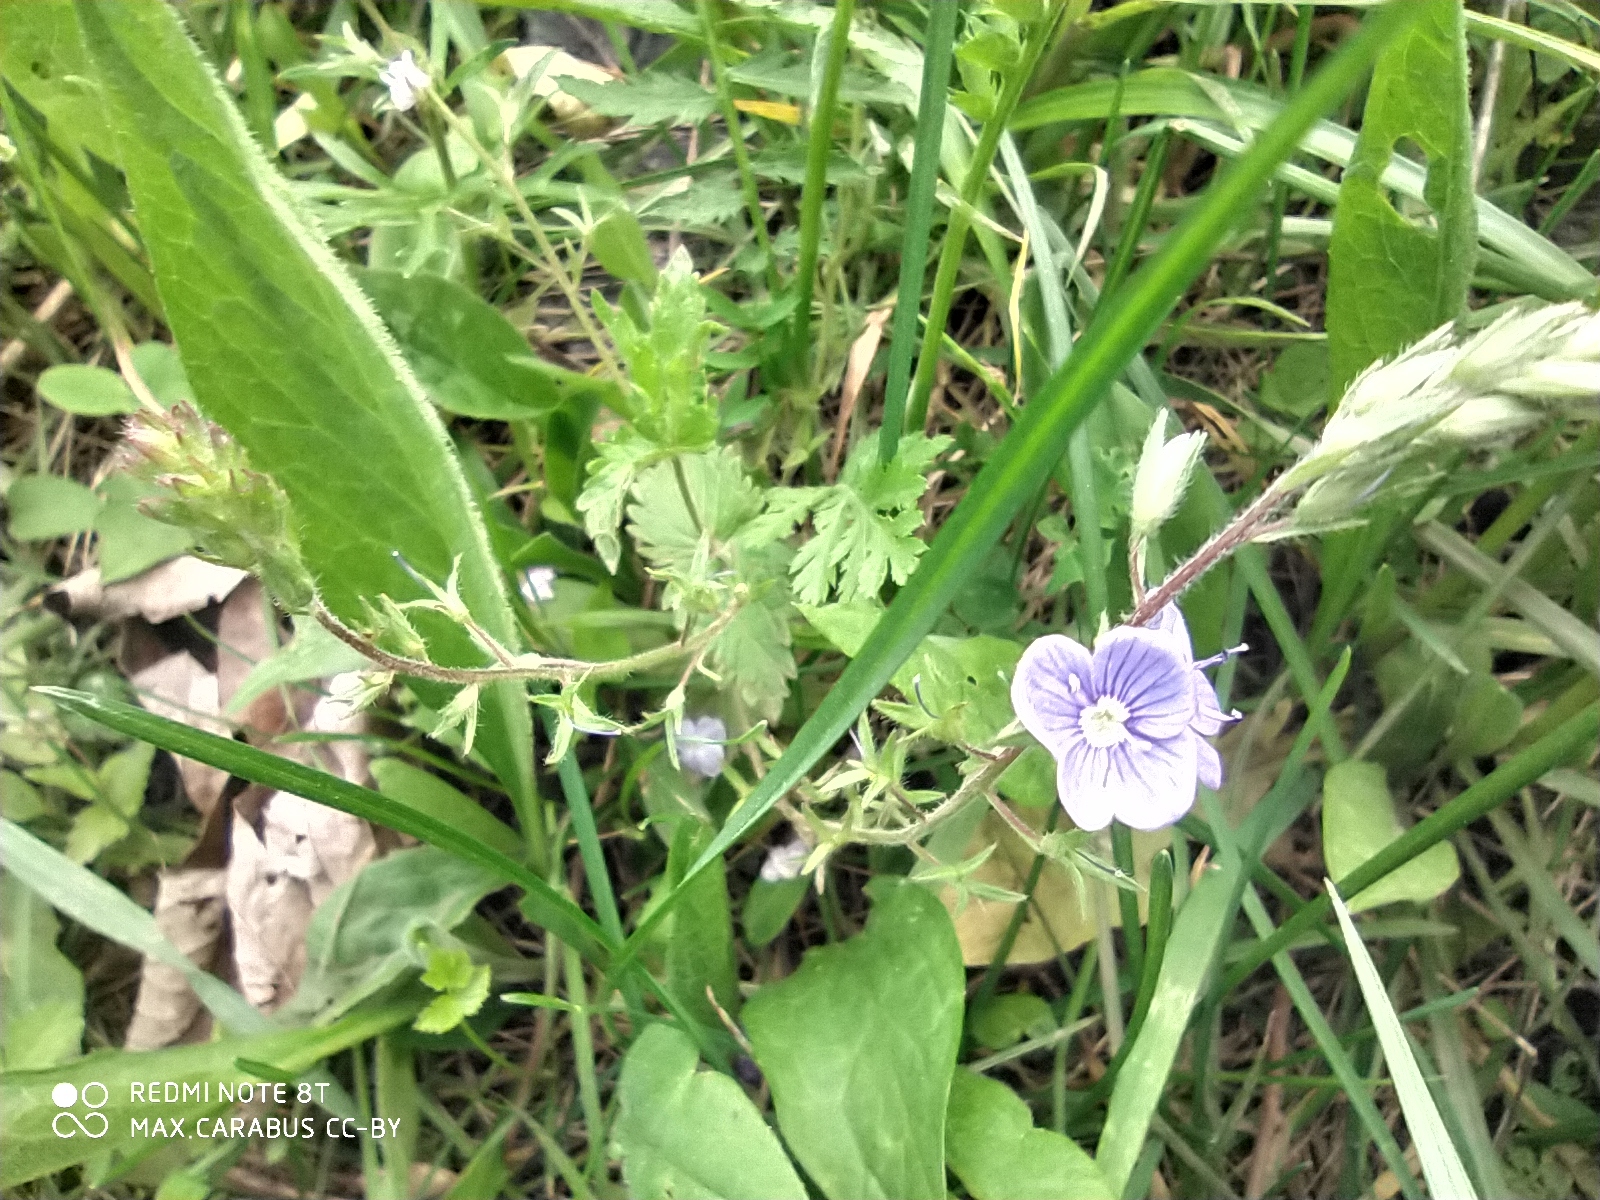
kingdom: Plantae
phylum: Tracheophyta
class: Magnoliopsida
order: Lamiales
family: Plantaginaceae
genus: Veronica
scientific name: Veronica chamaedrys
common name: Germander speedwell
